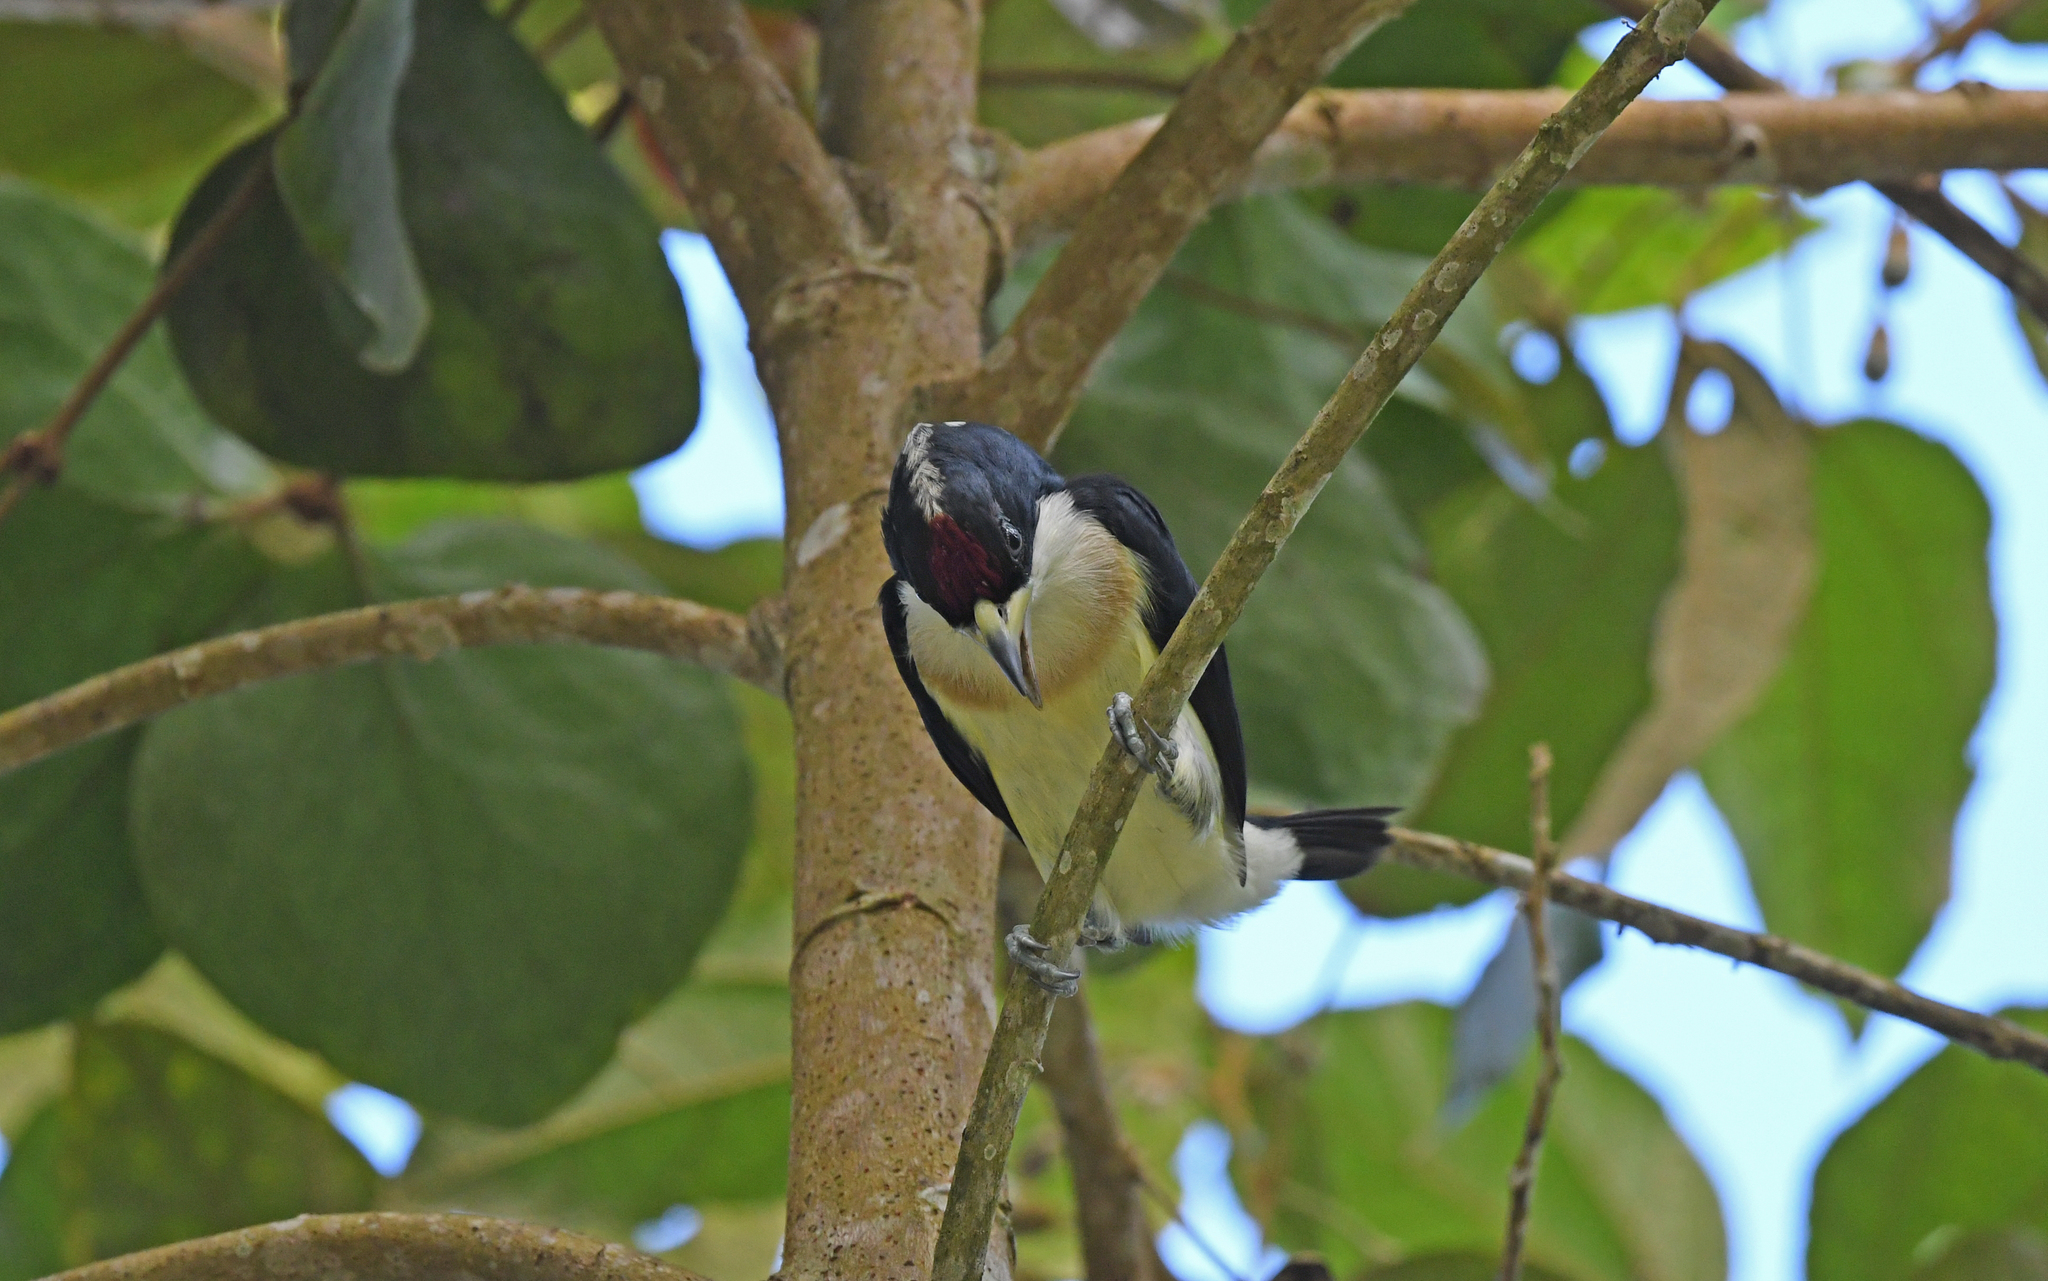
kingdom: Animalia
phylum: Chordata
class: Aves
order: Piciformes
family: Capitonidae
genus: Capito
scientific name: Capito hypoleucus
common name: White-mantled barbet
